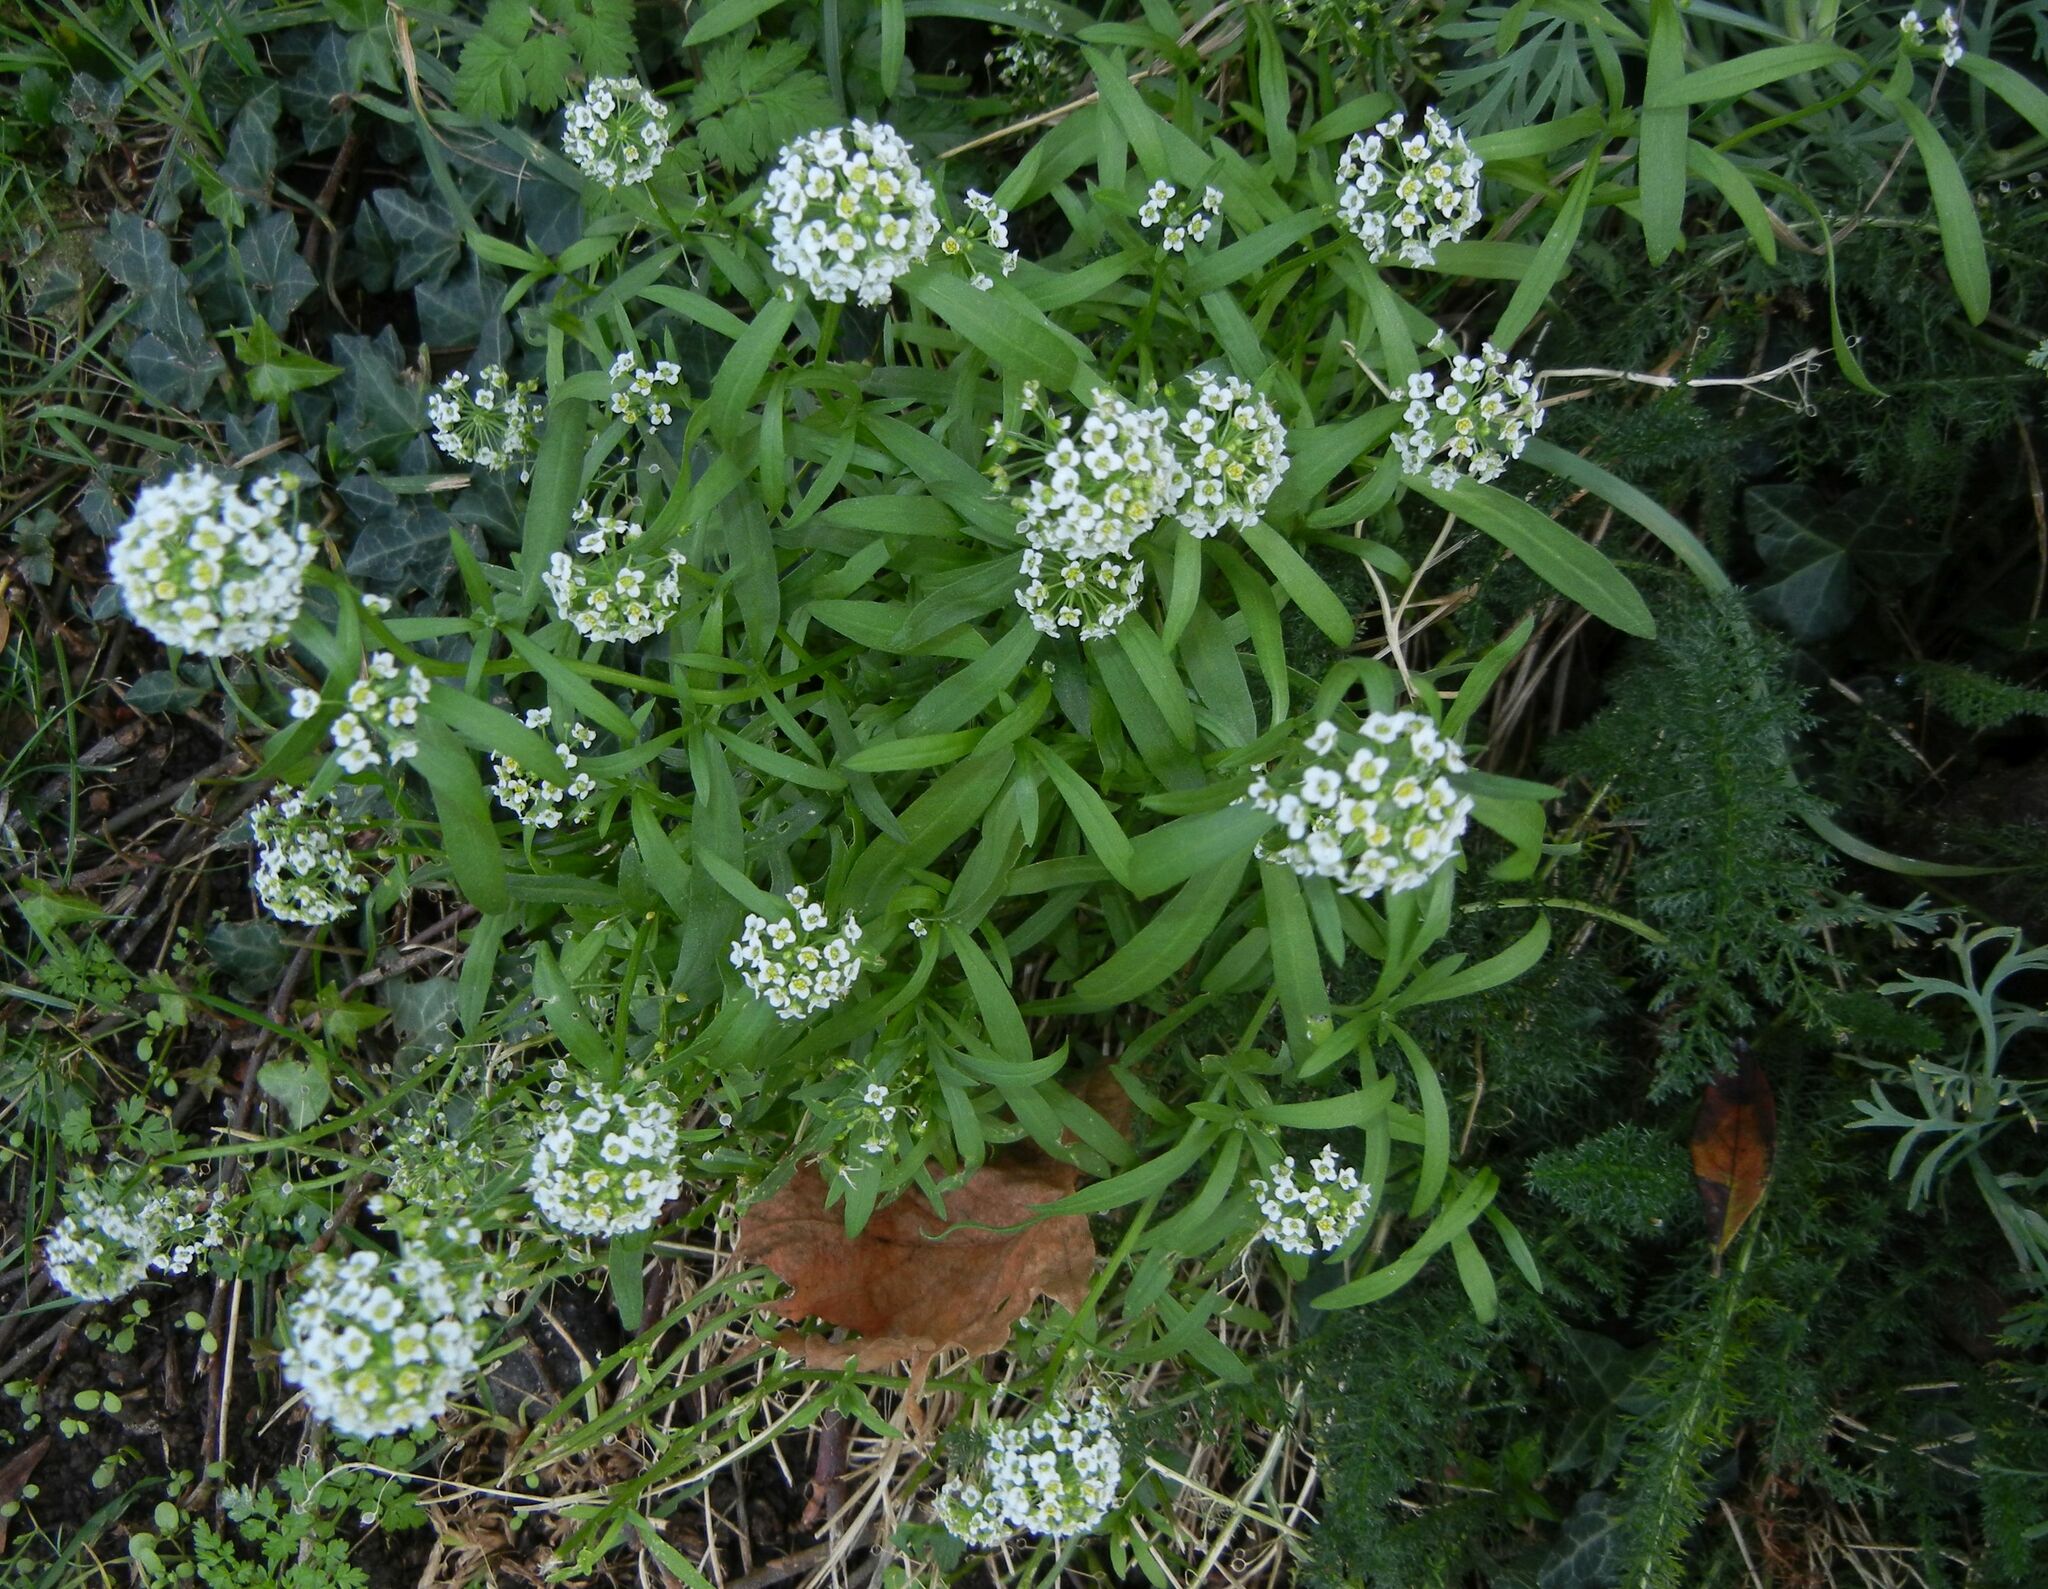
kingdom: Plantae
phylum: Tracheophyta
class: Magnoliopsida
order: Brassicales
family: Brassicaceae
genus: Lobularia
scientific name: Lobularia maritima
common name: Sweet alison
